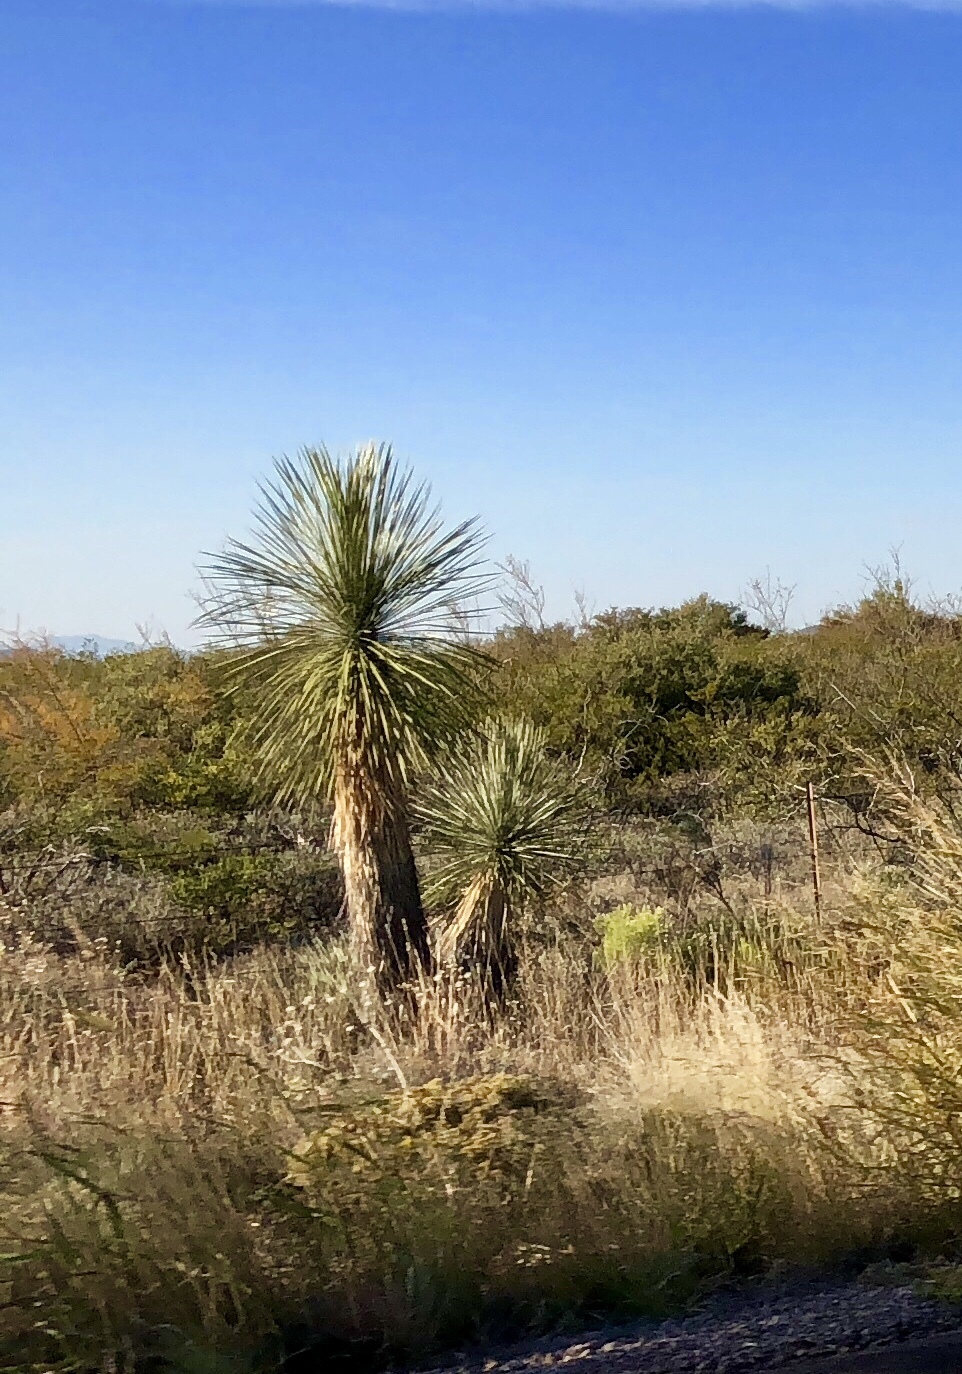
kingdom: Plantae
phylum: Tracheophyta
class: Liliopsida
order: Asparagales
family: Asparagaceae
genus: Yucca
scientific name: Yucca elata
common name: Palmella
